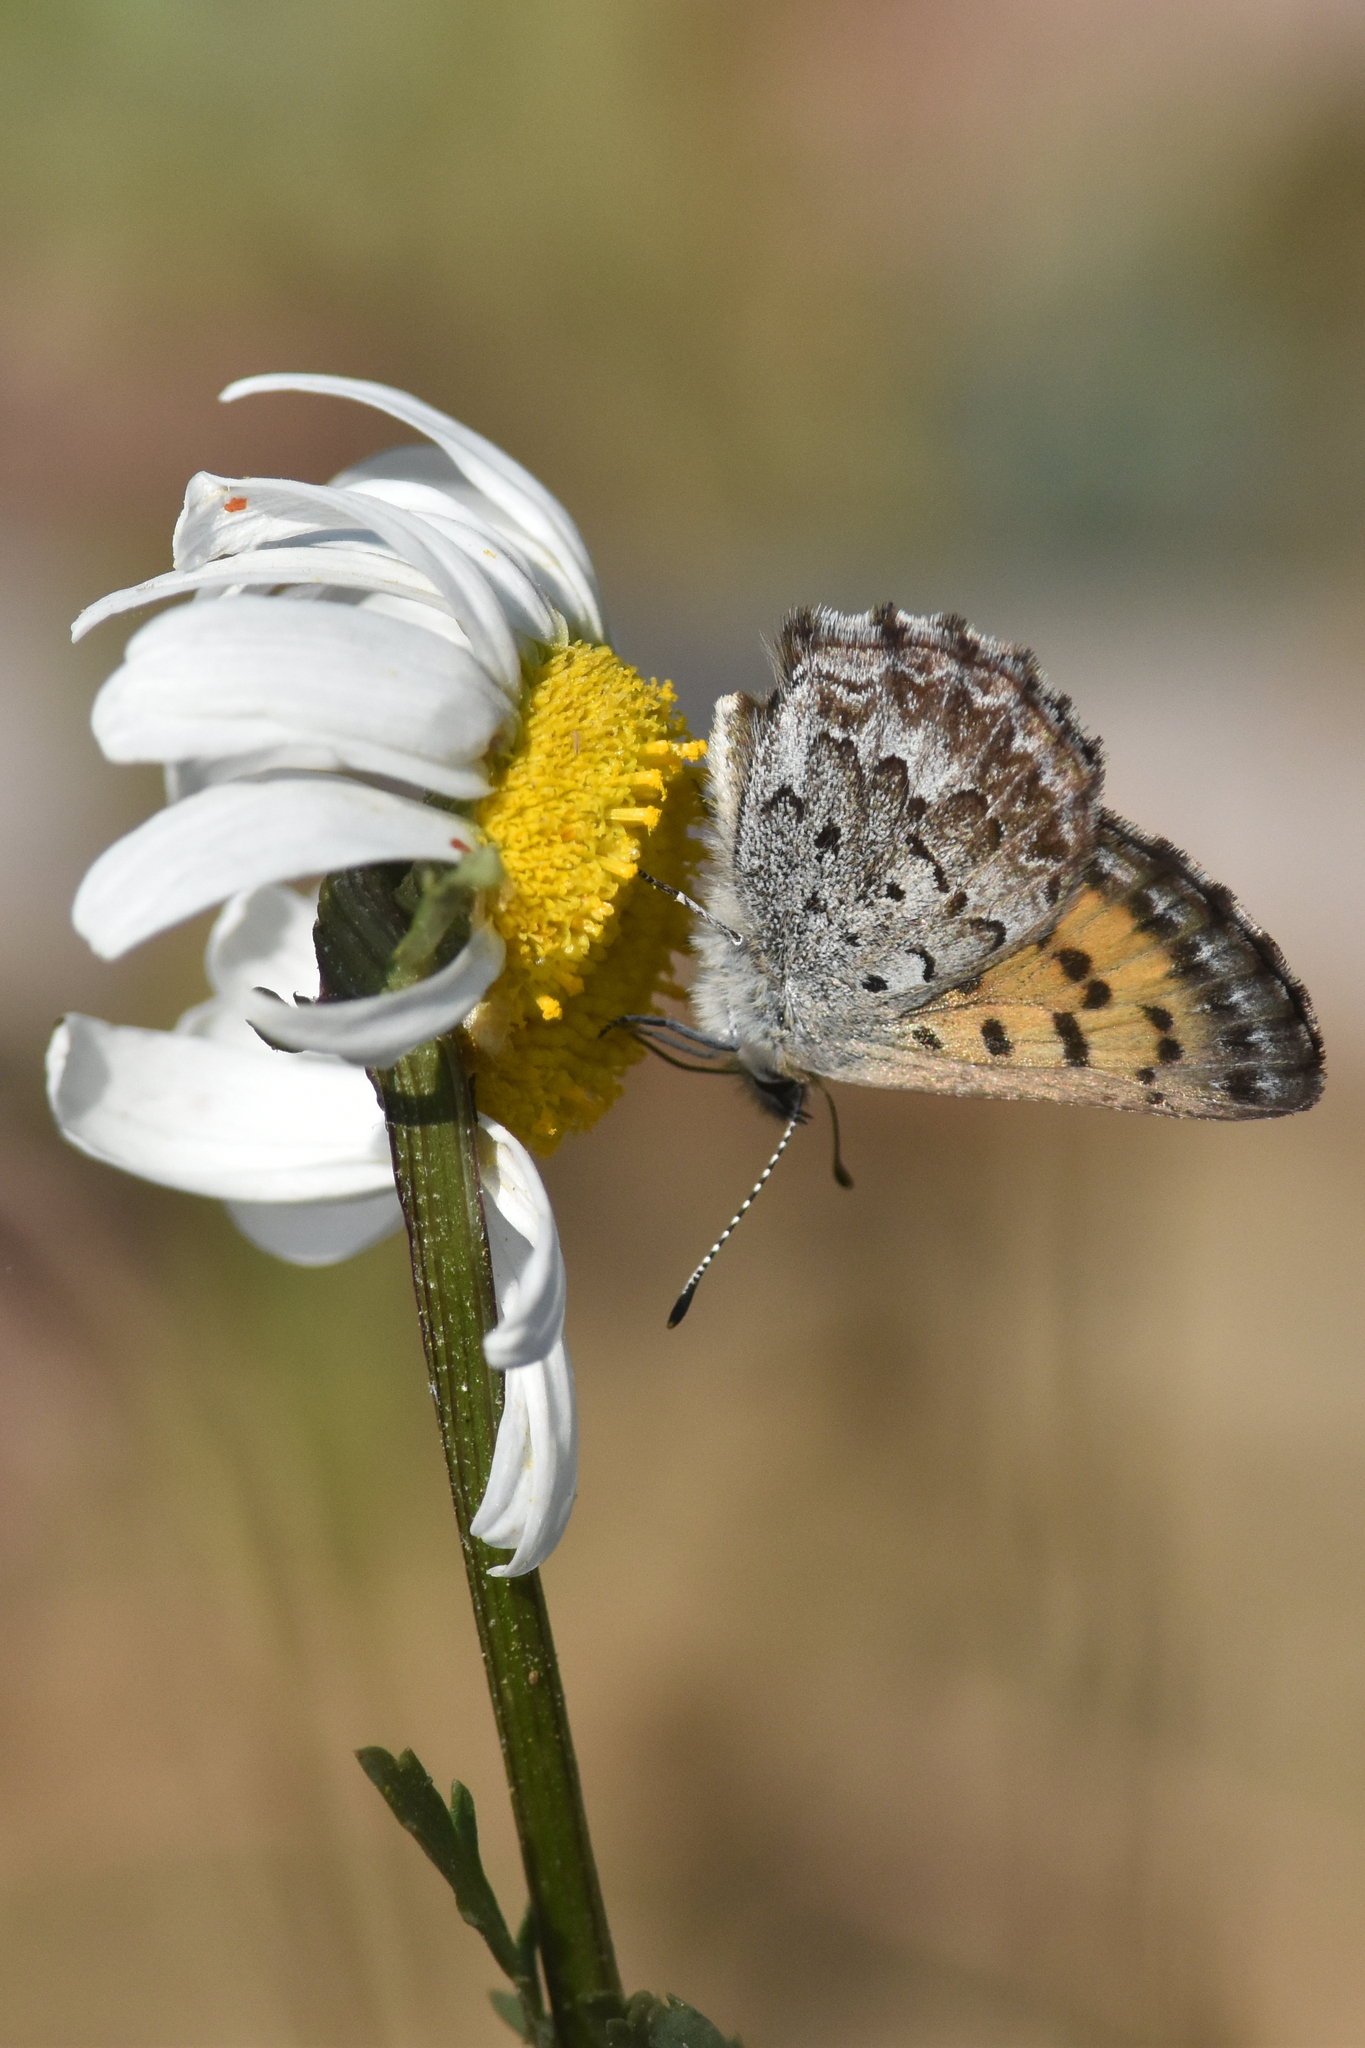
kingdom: Animalia
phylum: Arthropoda
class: Insecta
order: Lepidoptera
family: Lycaenidae
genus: Tharsalea
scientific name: Tharsalea mariposa
